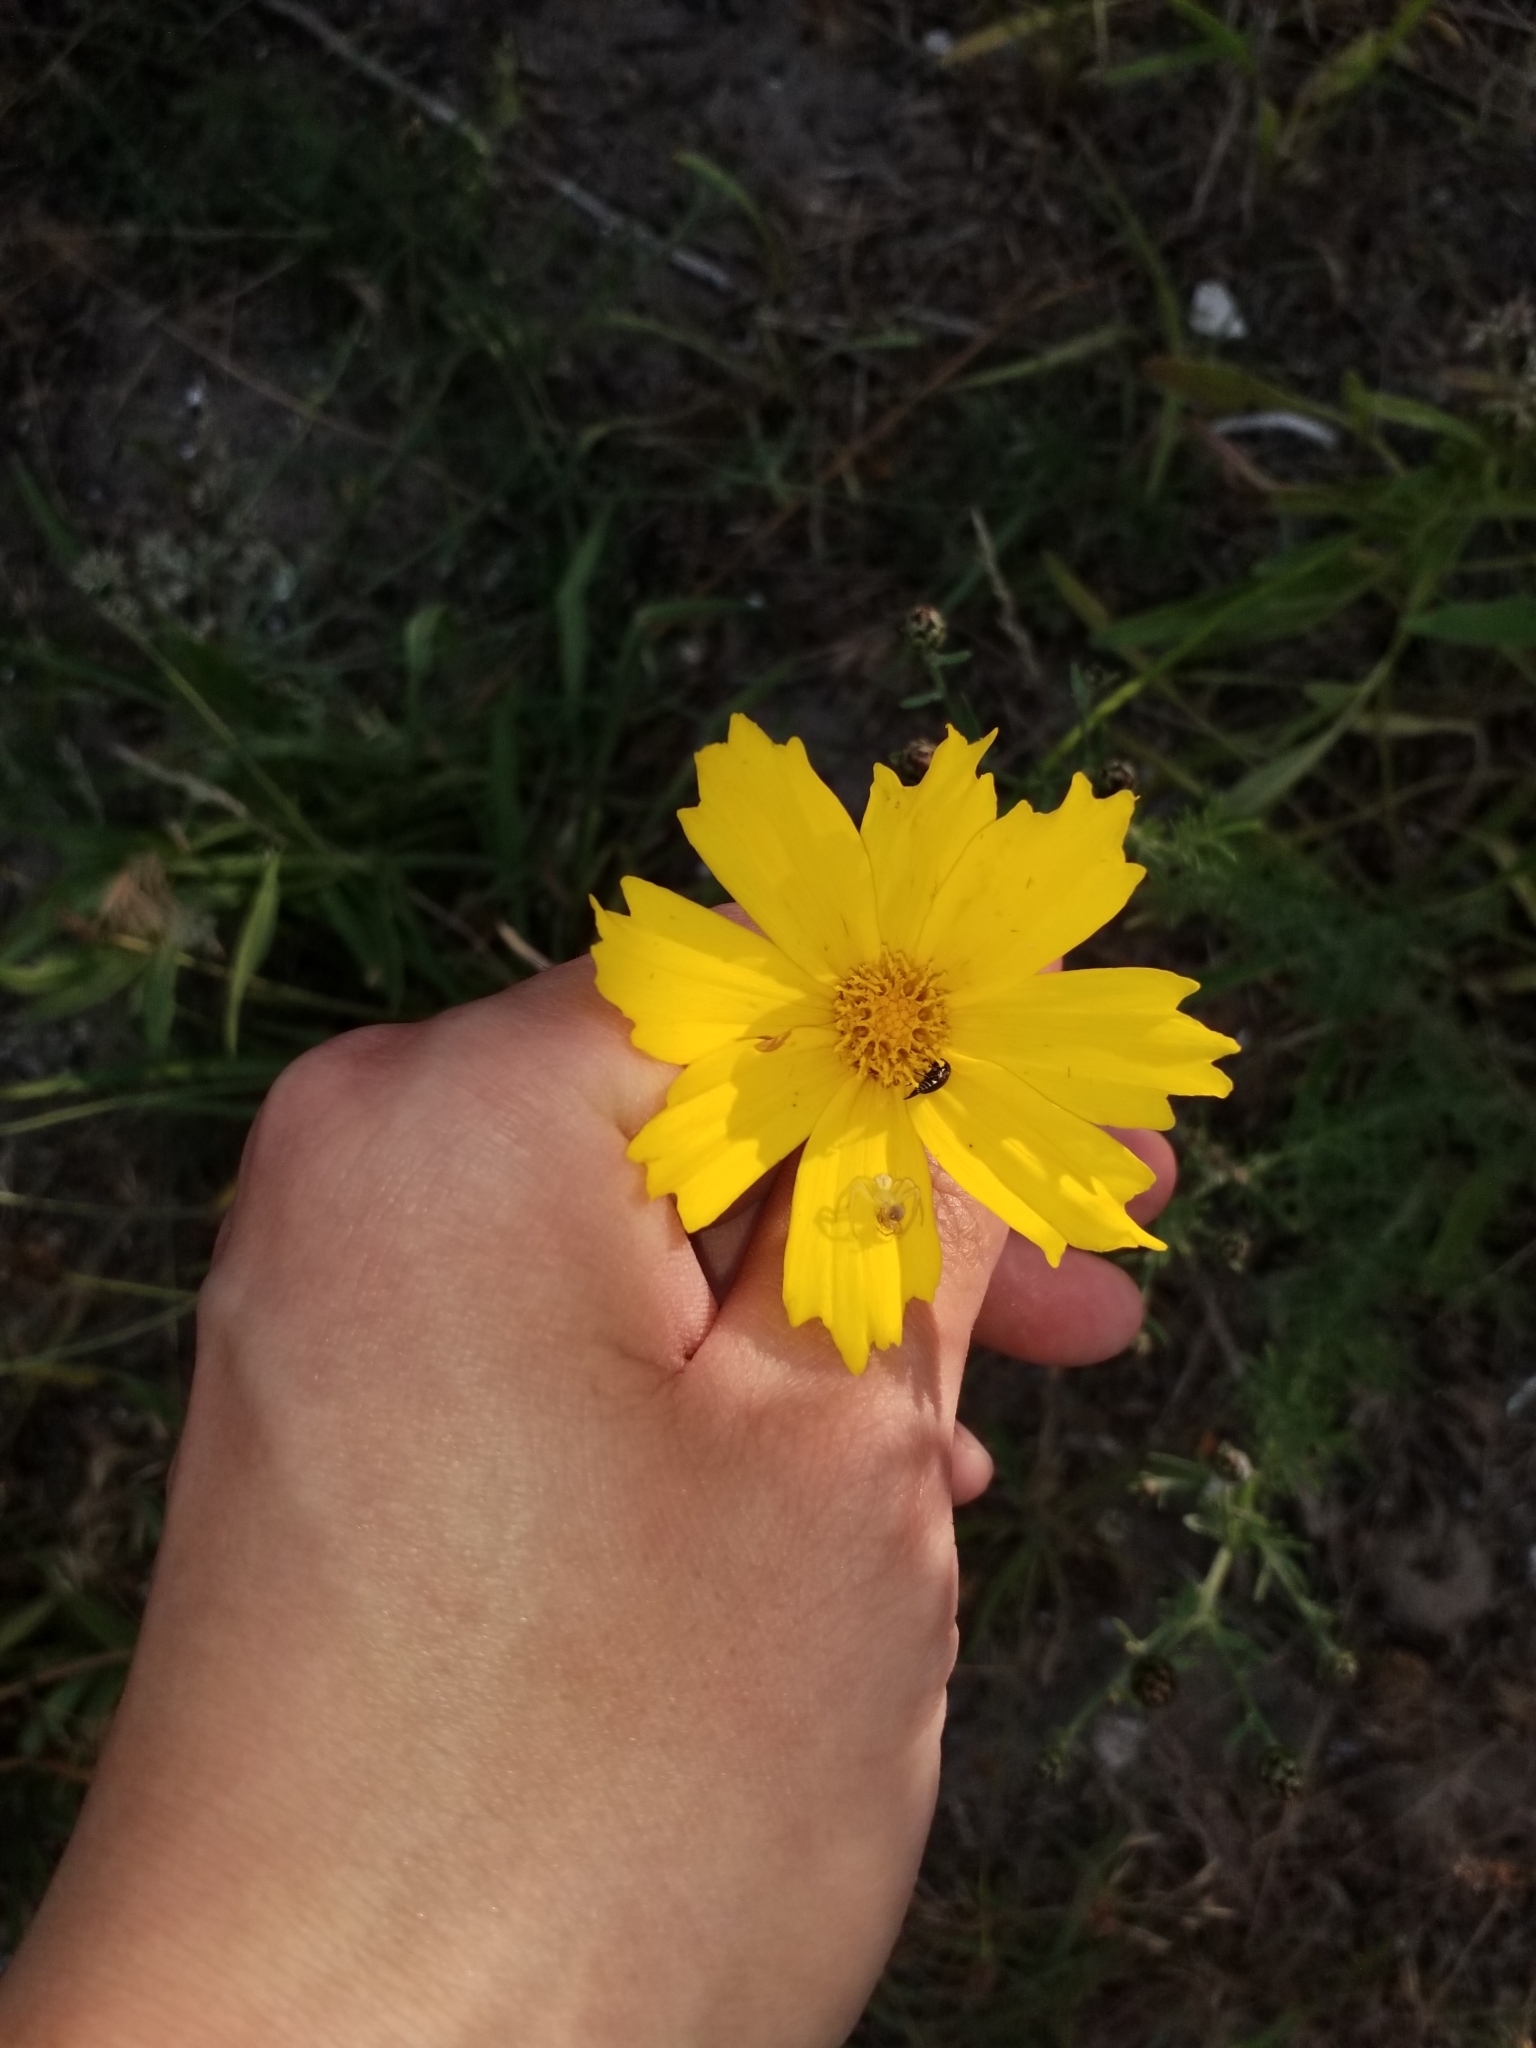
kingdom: Plantae
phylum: Tracheophyta
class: Magnoliopsida
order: Asterales
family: Asteraceae
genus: Coreopsis
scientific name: Coreopsis lanceolata
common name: Garden coreopsis
